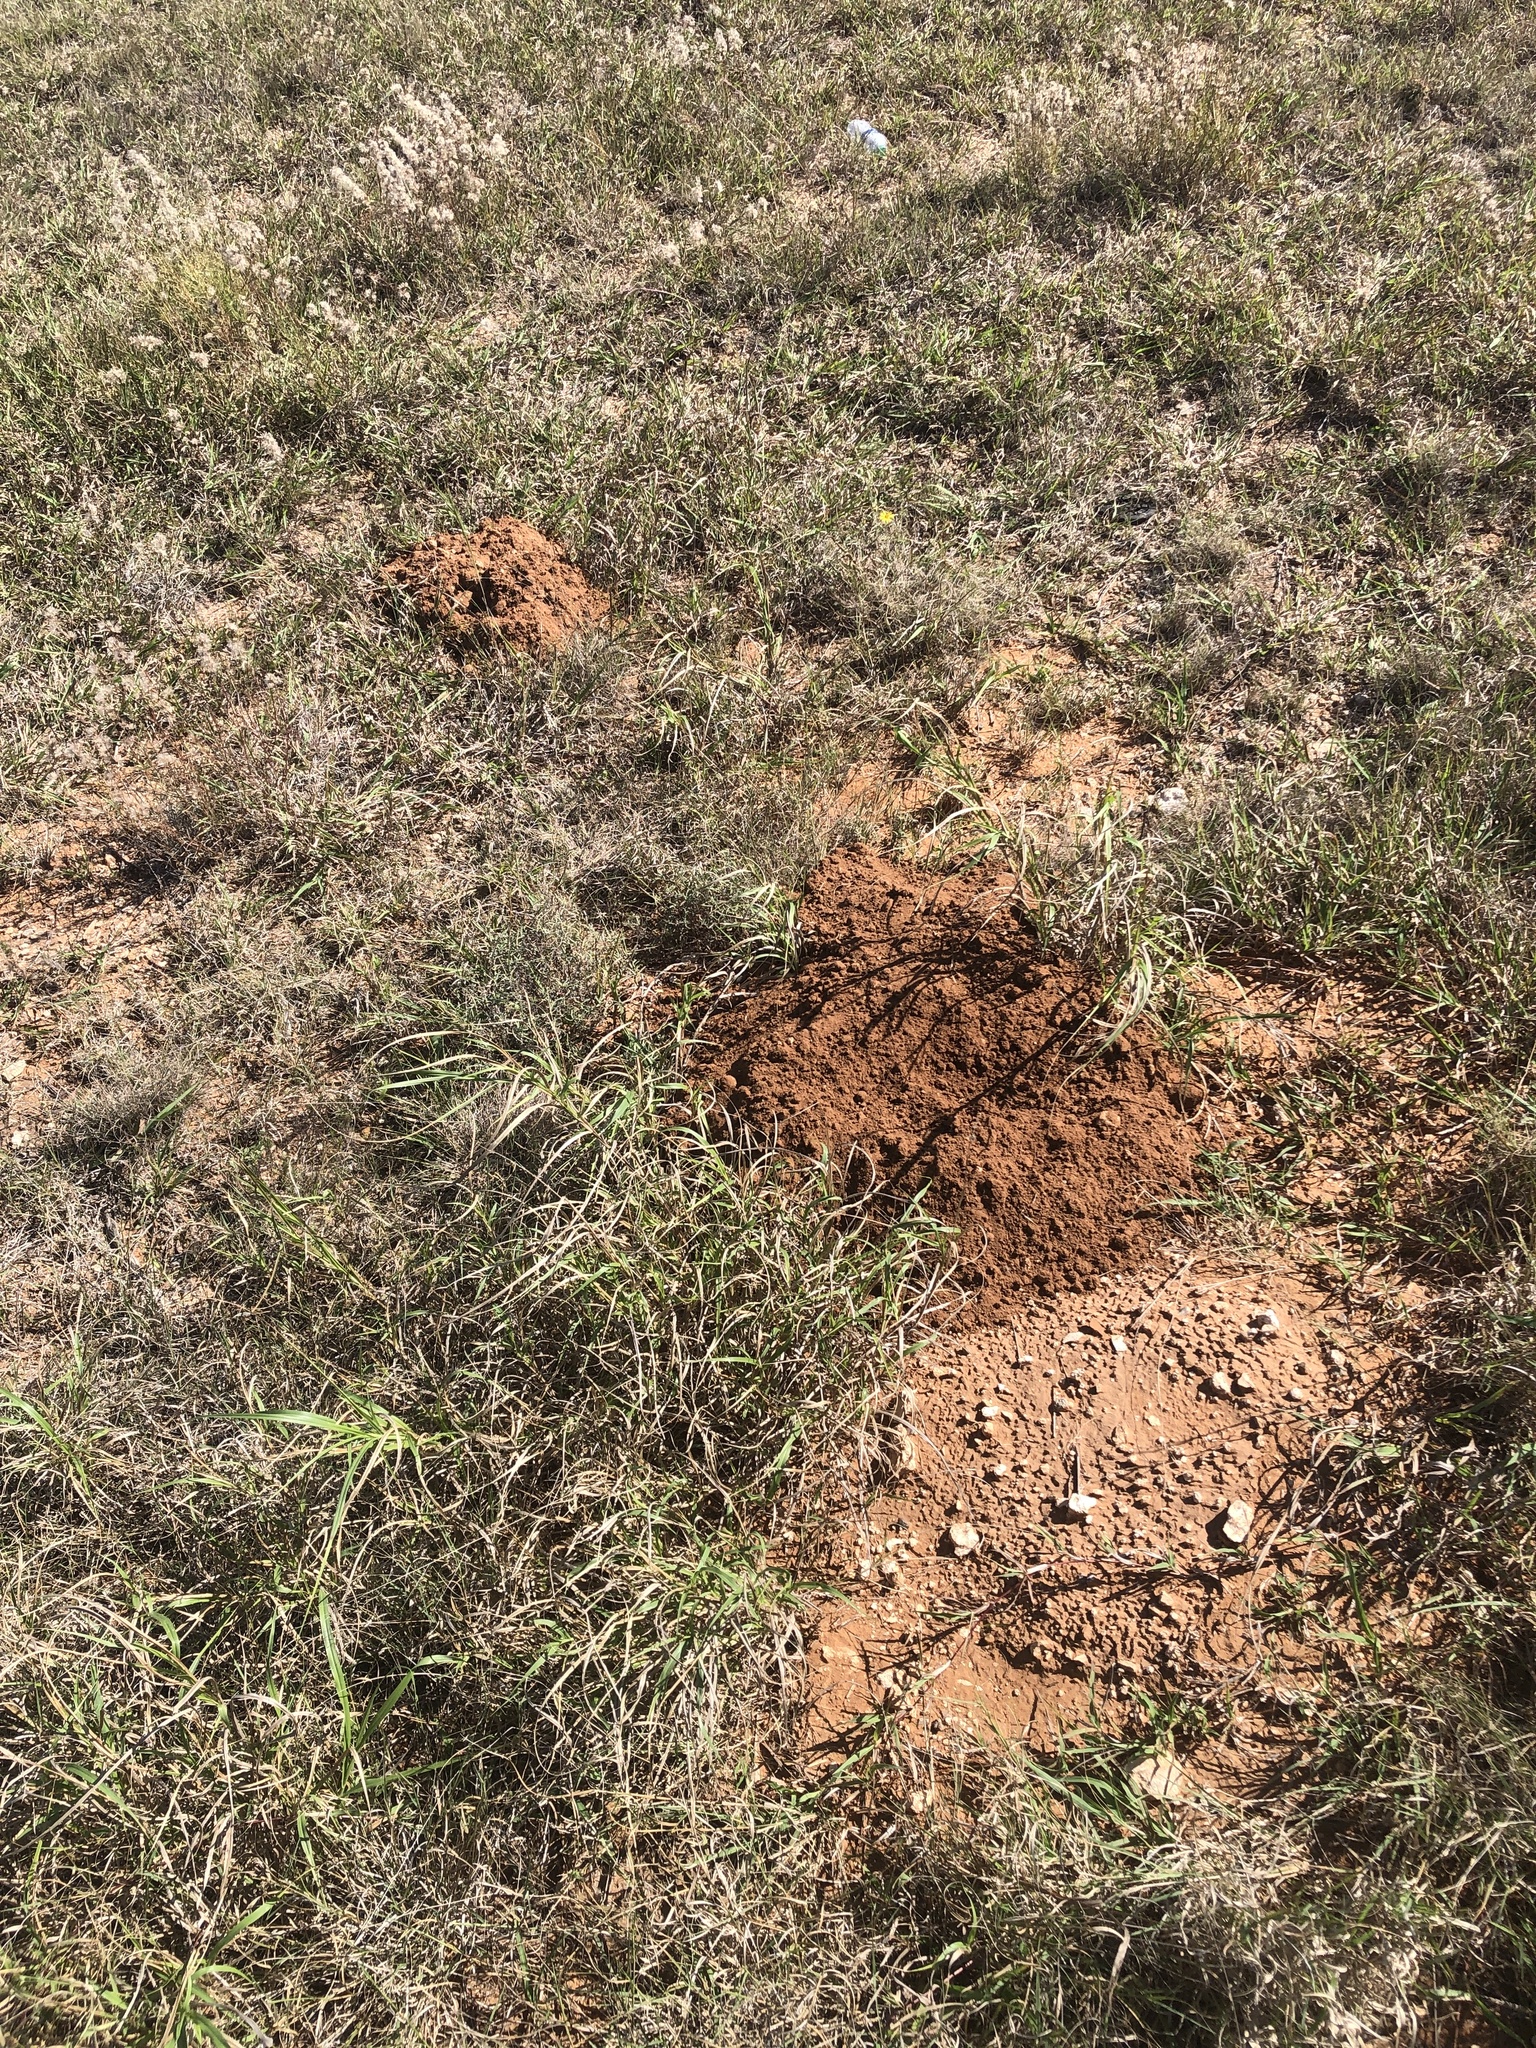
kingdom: Animalia
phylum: Chordata
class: Mammalia
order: Rodentia
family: Geomyidae
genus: Geomys
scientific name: Geomys personatus
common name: Texas pocket gopher
